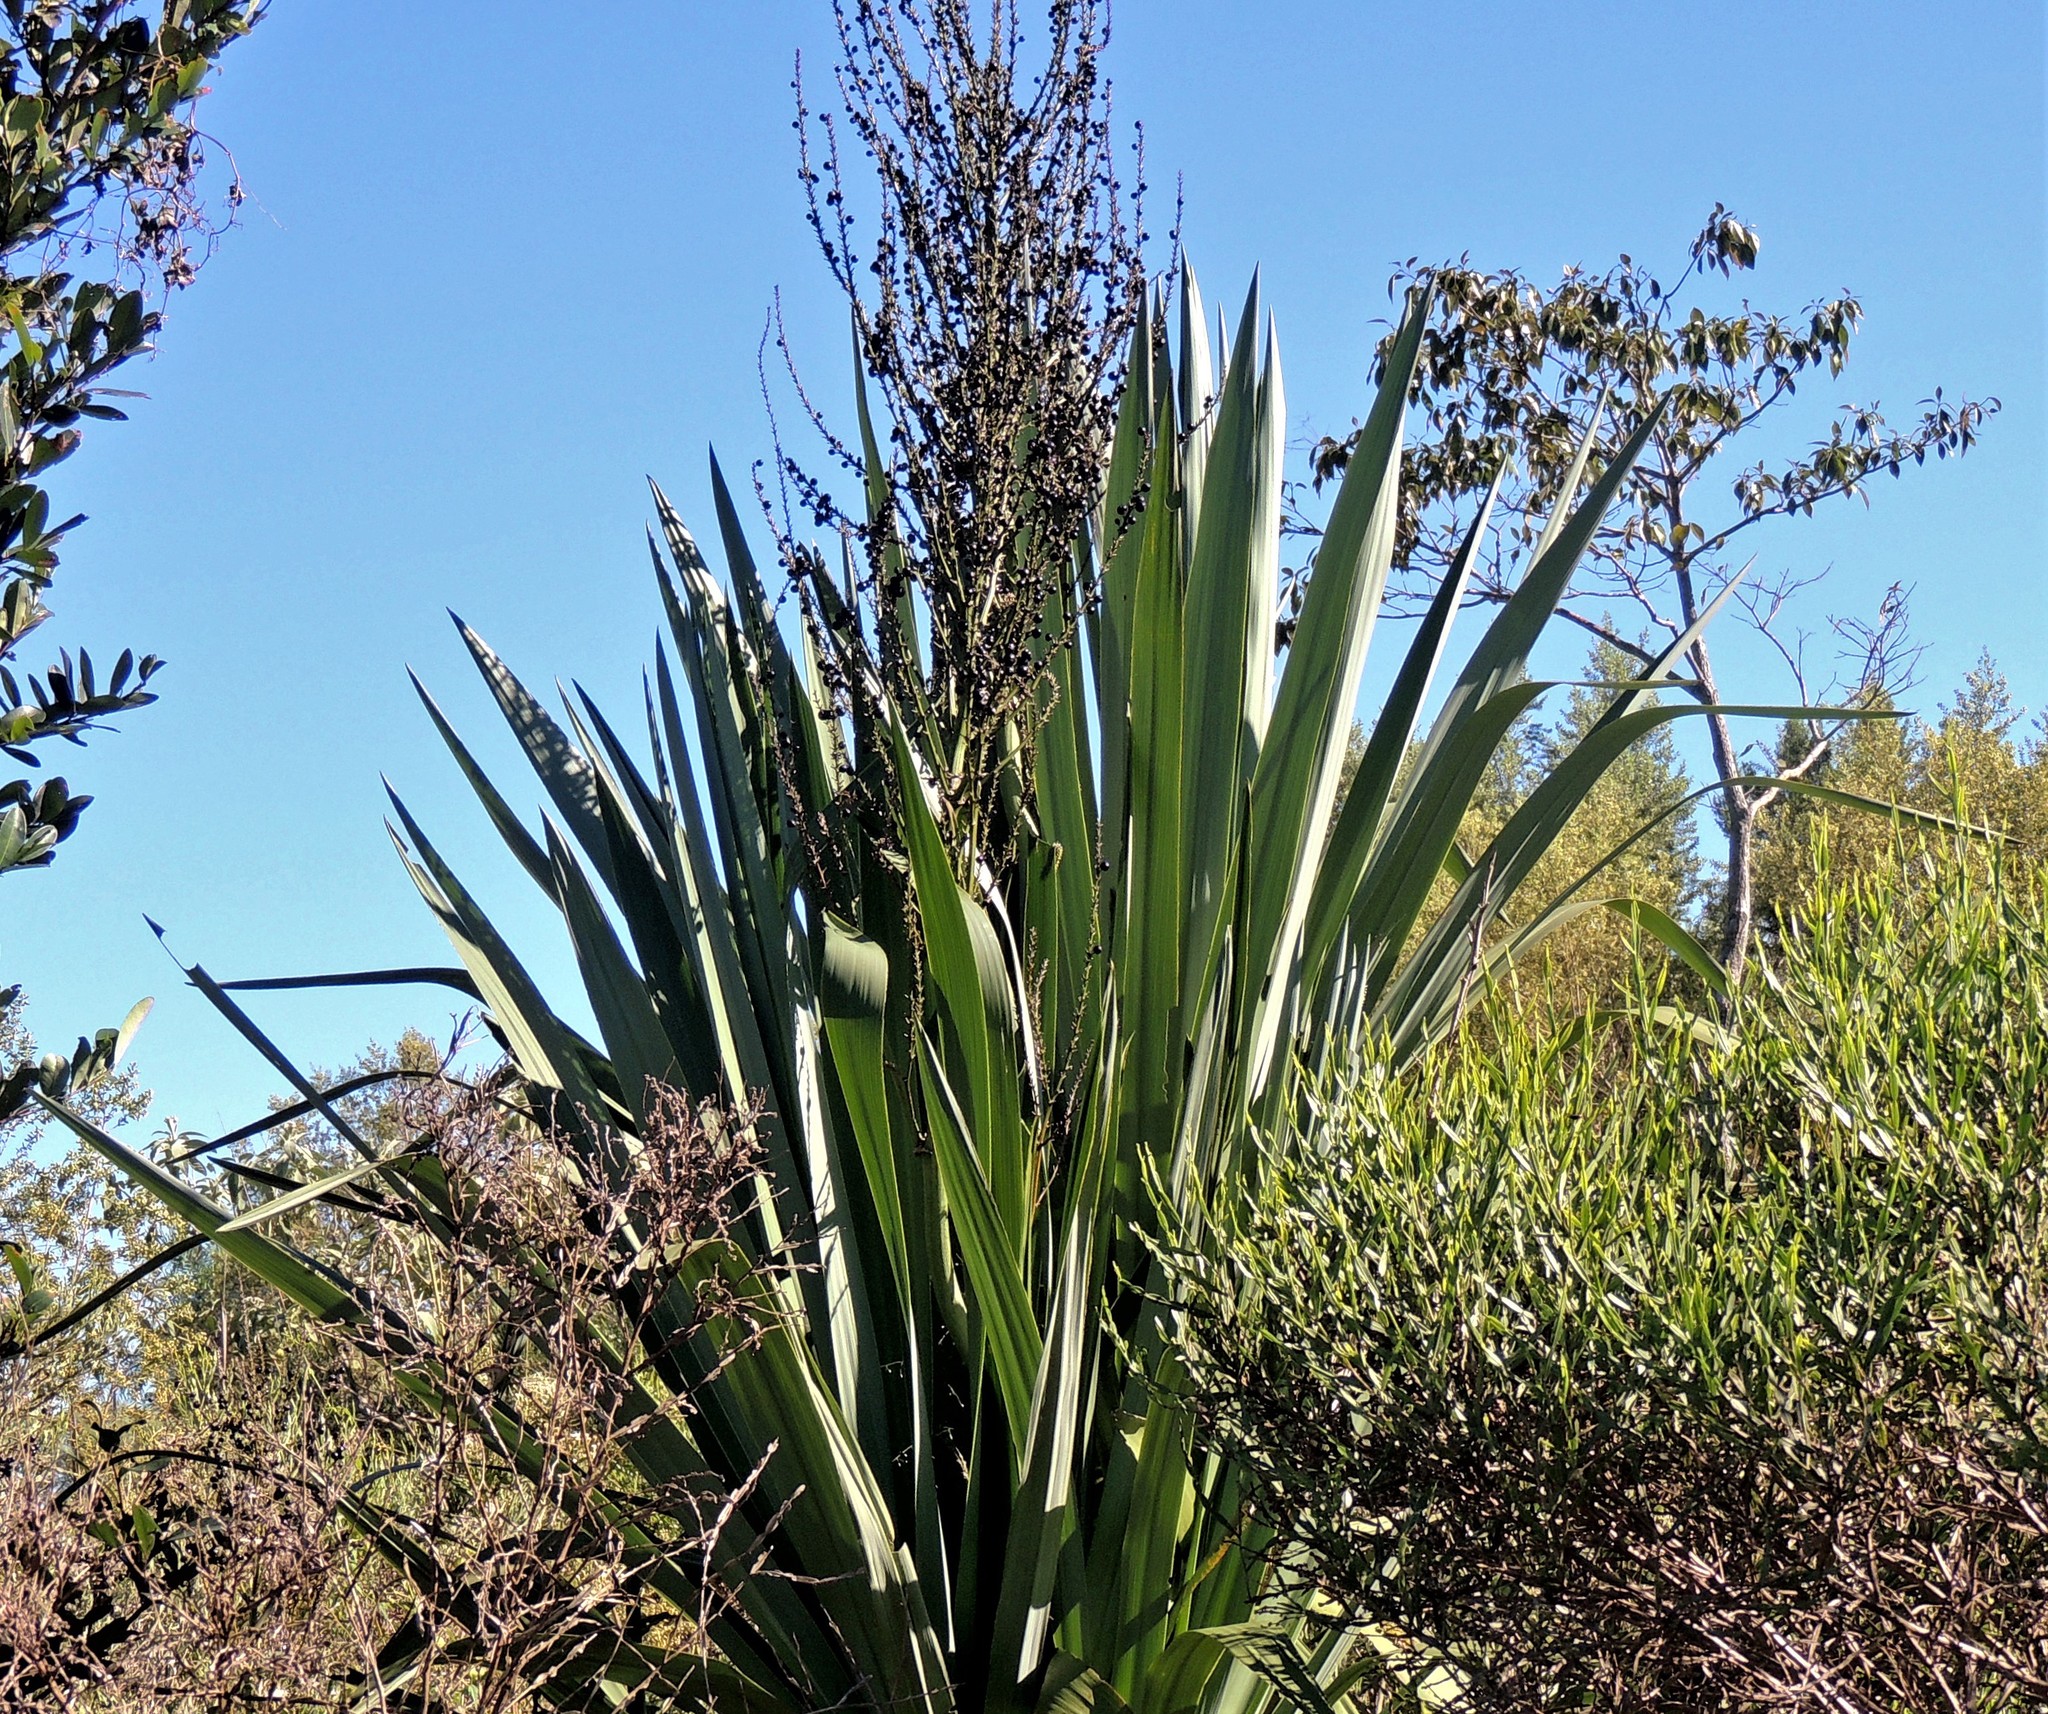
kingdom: Plantae
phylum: Tracheophyta
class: Liliopsida
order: Asparagales
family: Asparagaceae
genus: Yucca
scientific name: Yucca gloriosa
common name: Spanish-dagger
